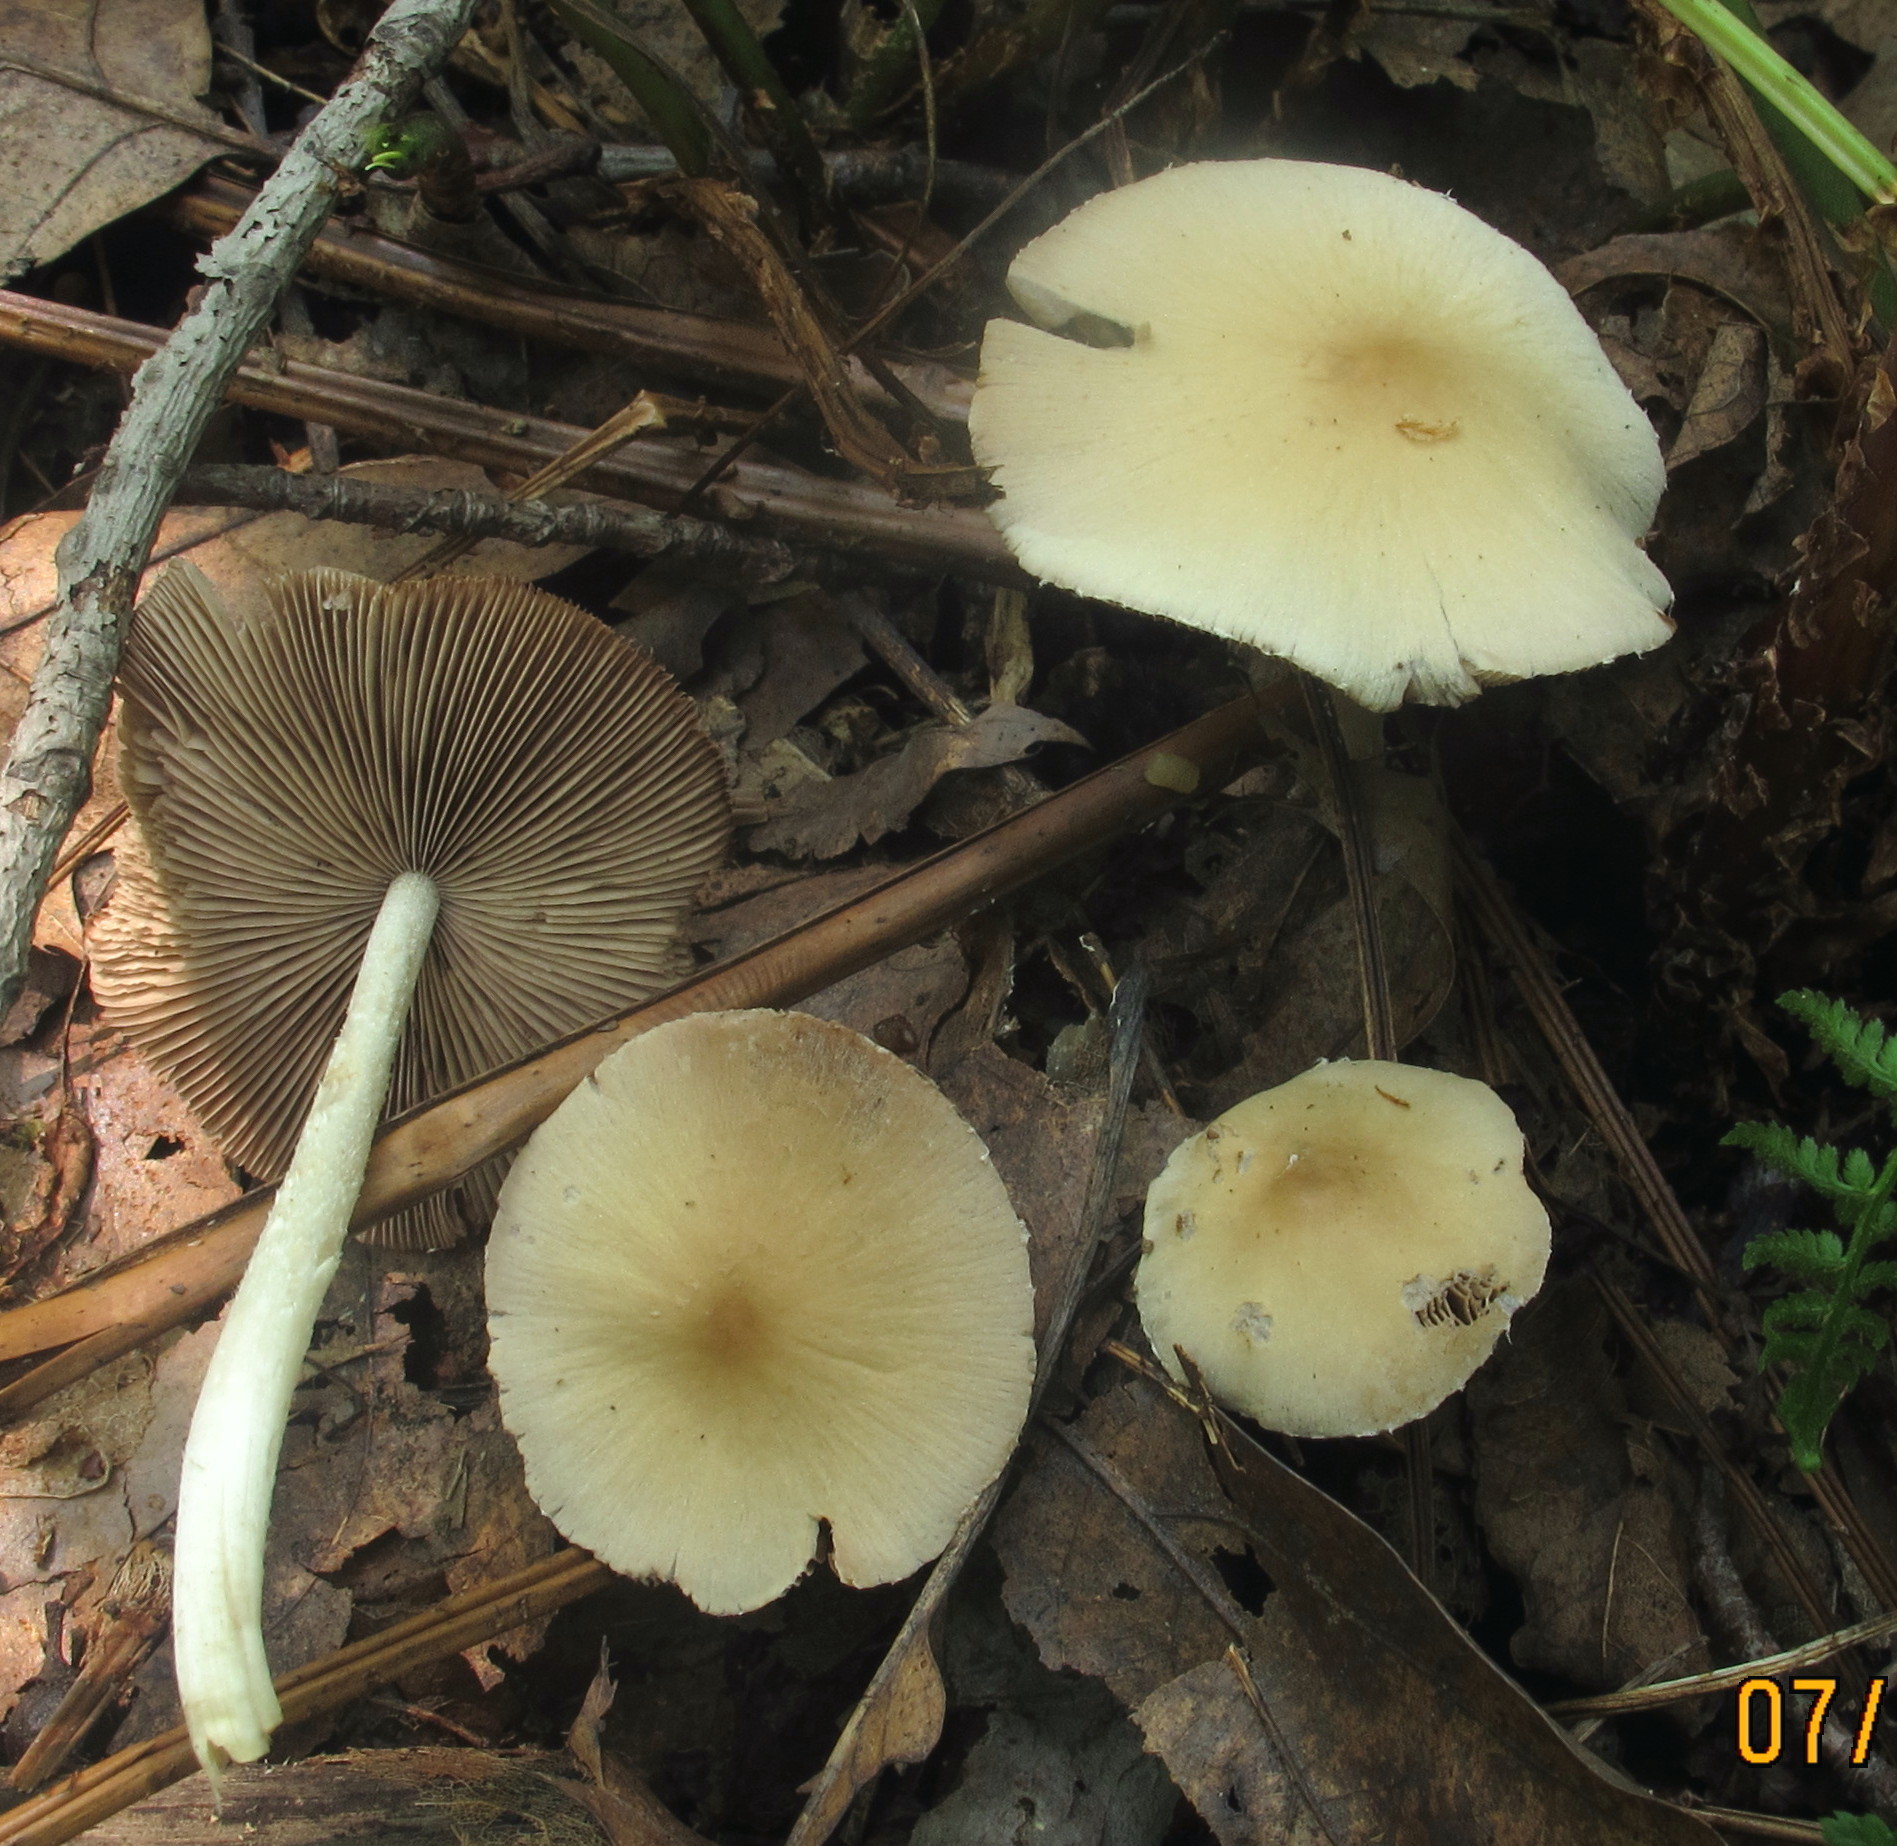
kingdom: Fungi
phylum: Basidiomycota
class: Agaricomycetes
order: Agaricales
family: Psathyrellaceae
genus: Candolleomyces
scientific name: Candolleomyces candolleanus
